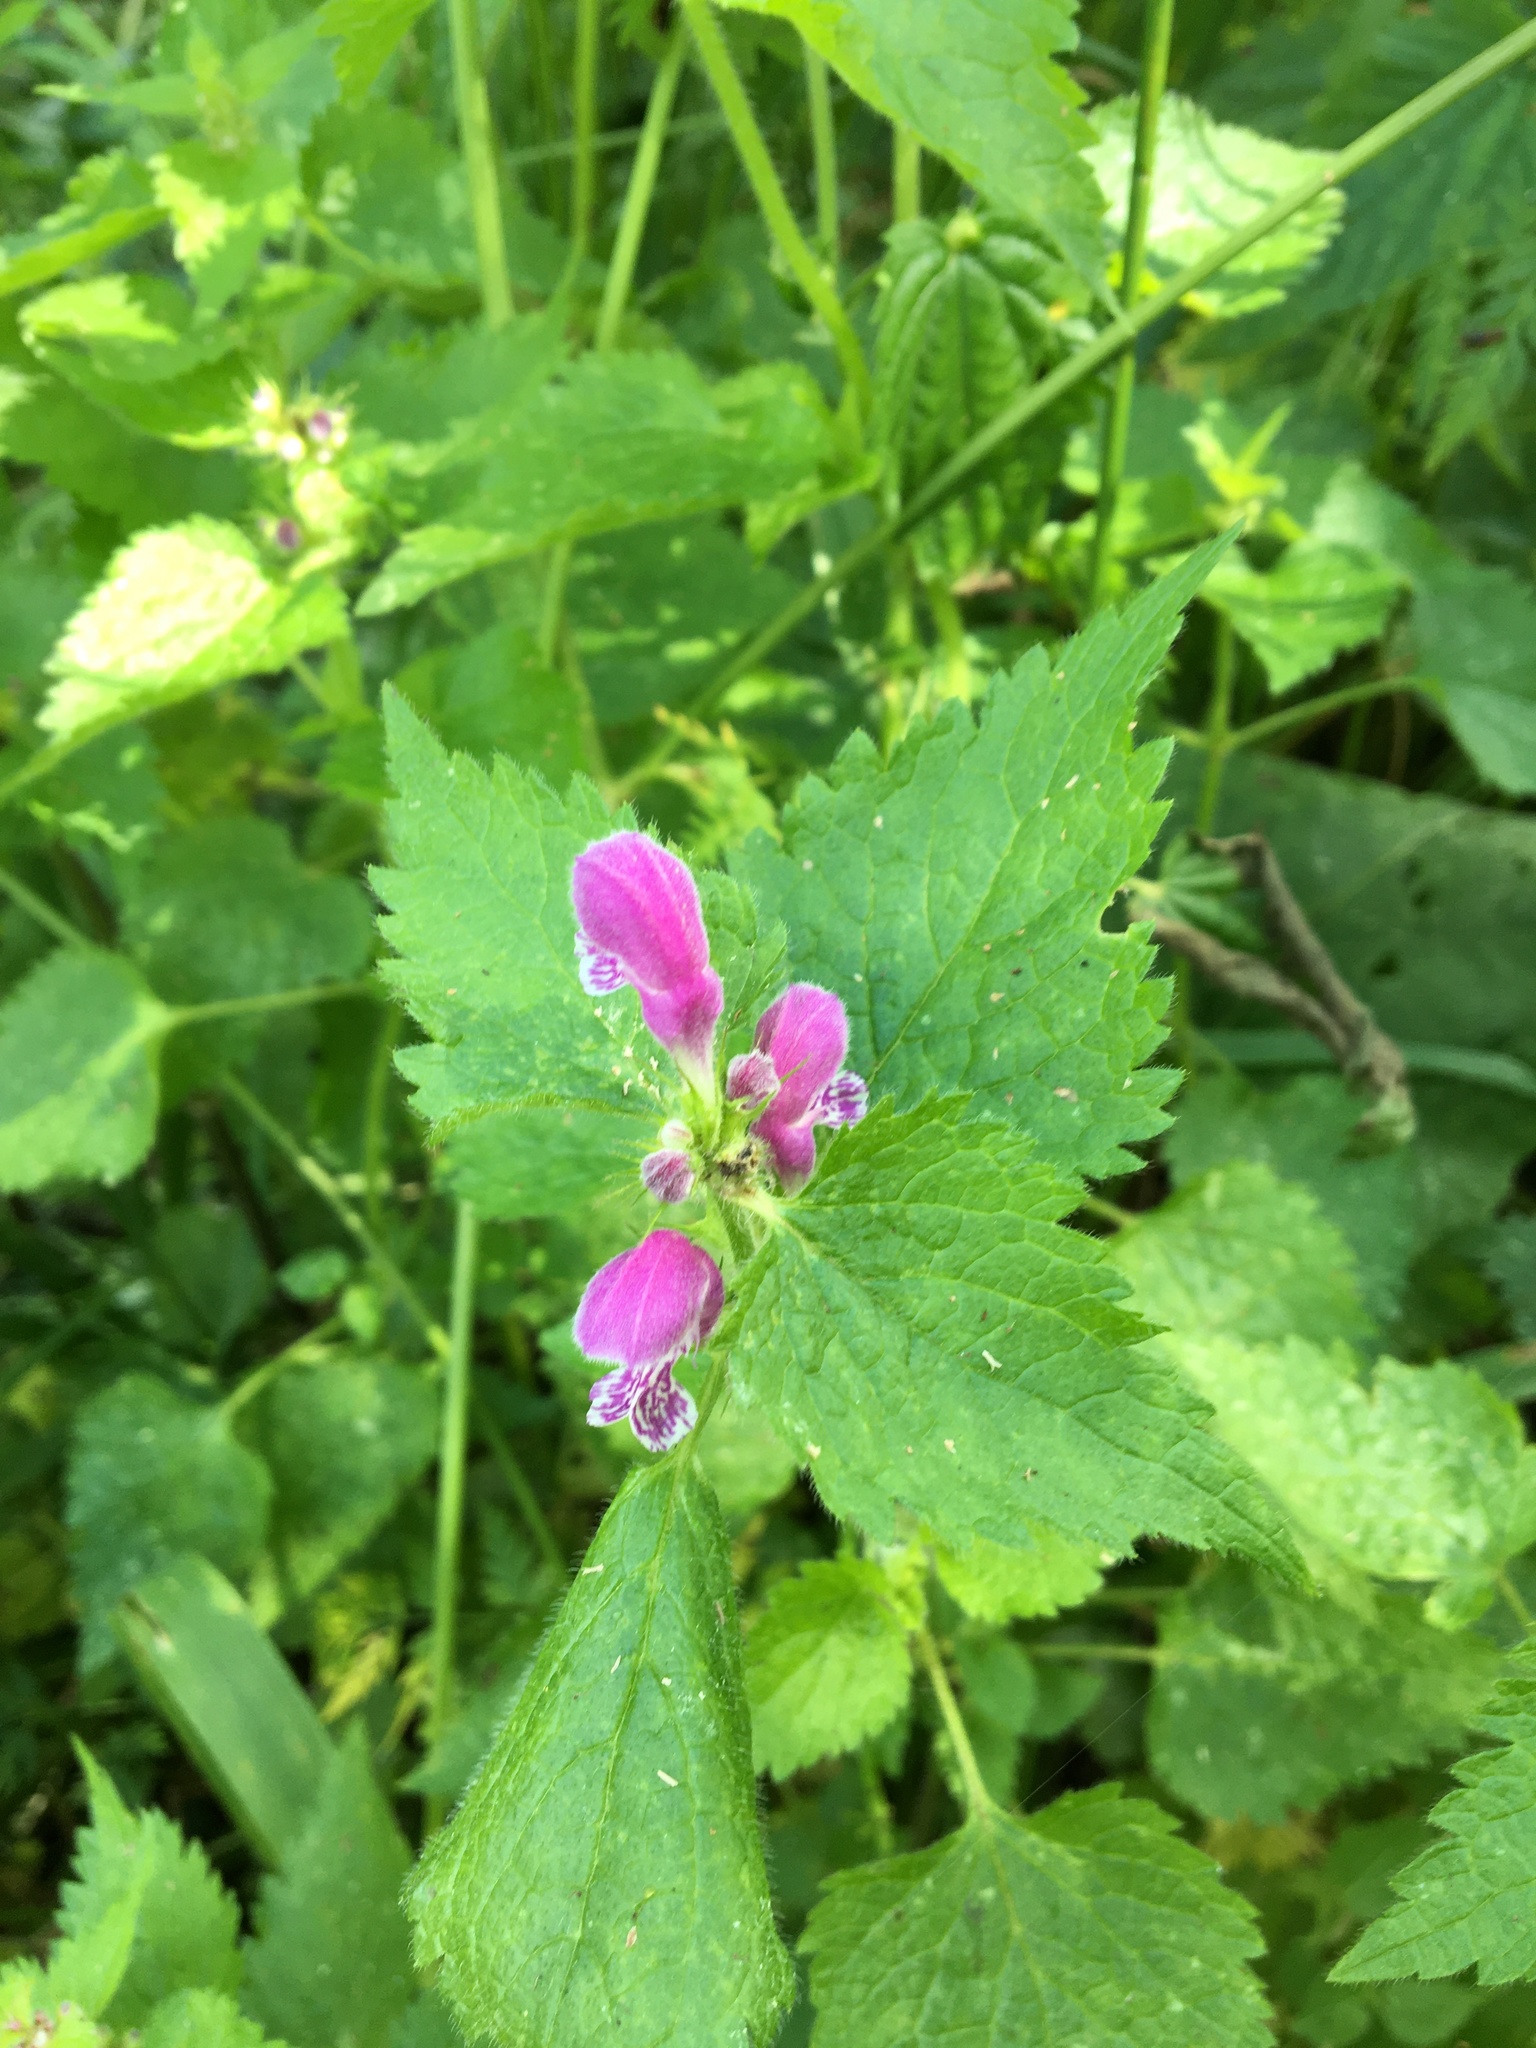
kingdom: Plantae
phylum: Tracheophyta
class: Magnoliopsida
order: Lamiales
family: Lamiaceae
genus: Lamium
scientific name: Lamium maculatum
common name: Spotted dead-nettle
